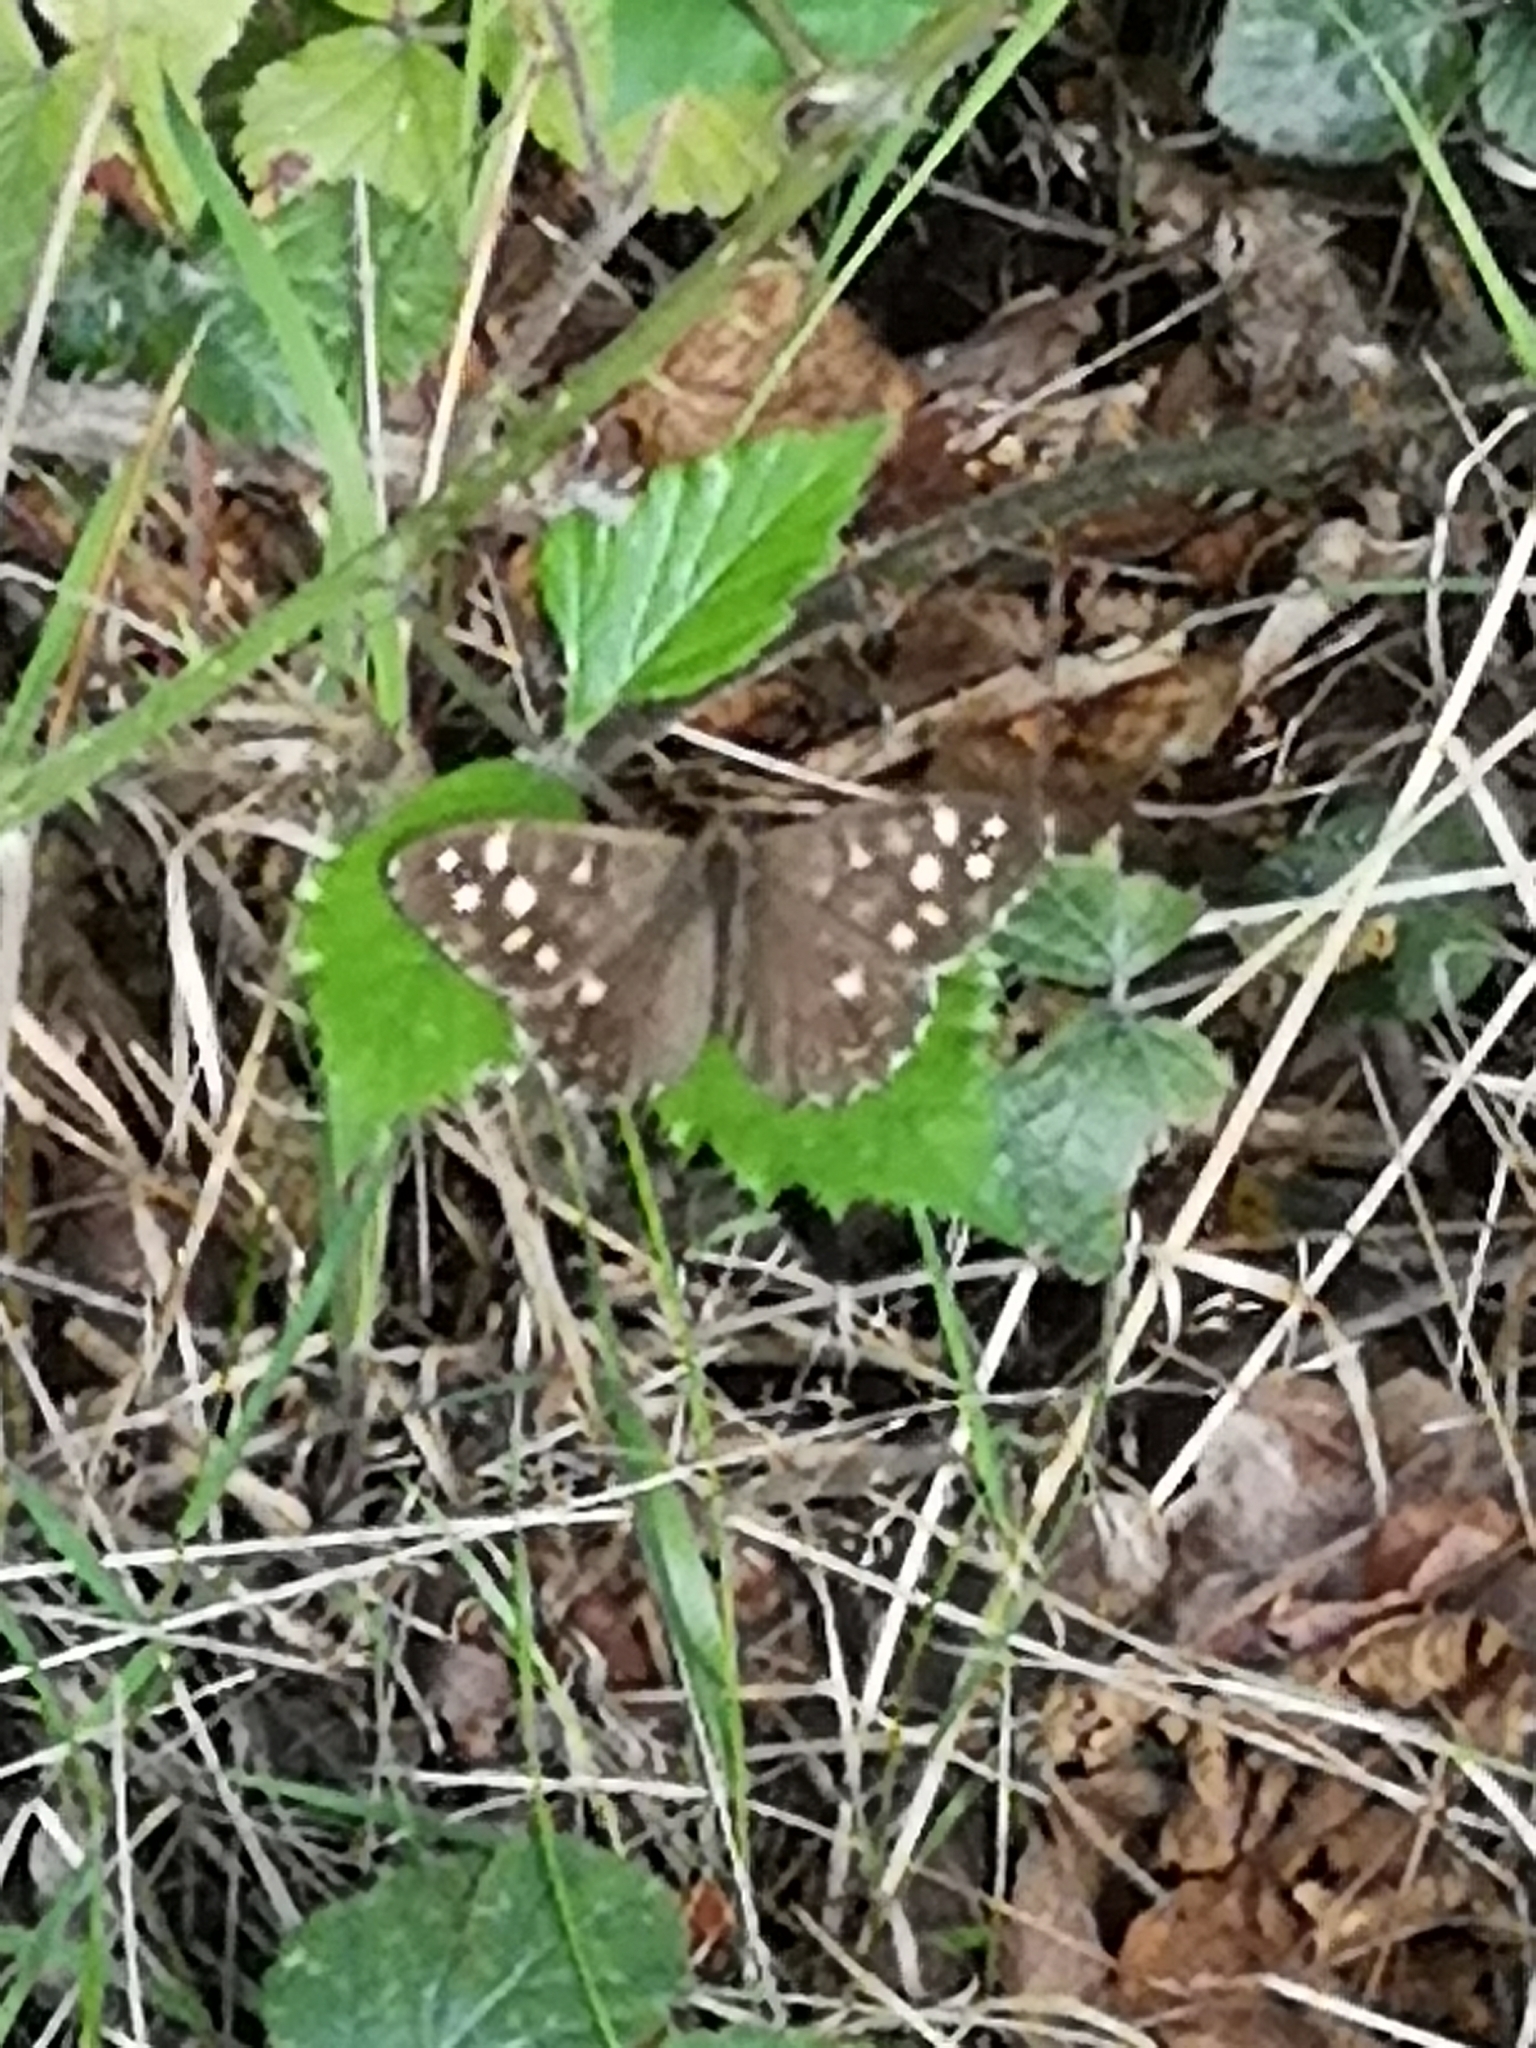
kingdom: Animalia
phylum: Arthropoda
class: Insecta
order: Lepidoptera
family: Nymphalidae
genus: Pararge
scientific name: Pararge aegeria
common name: Speckled wood
